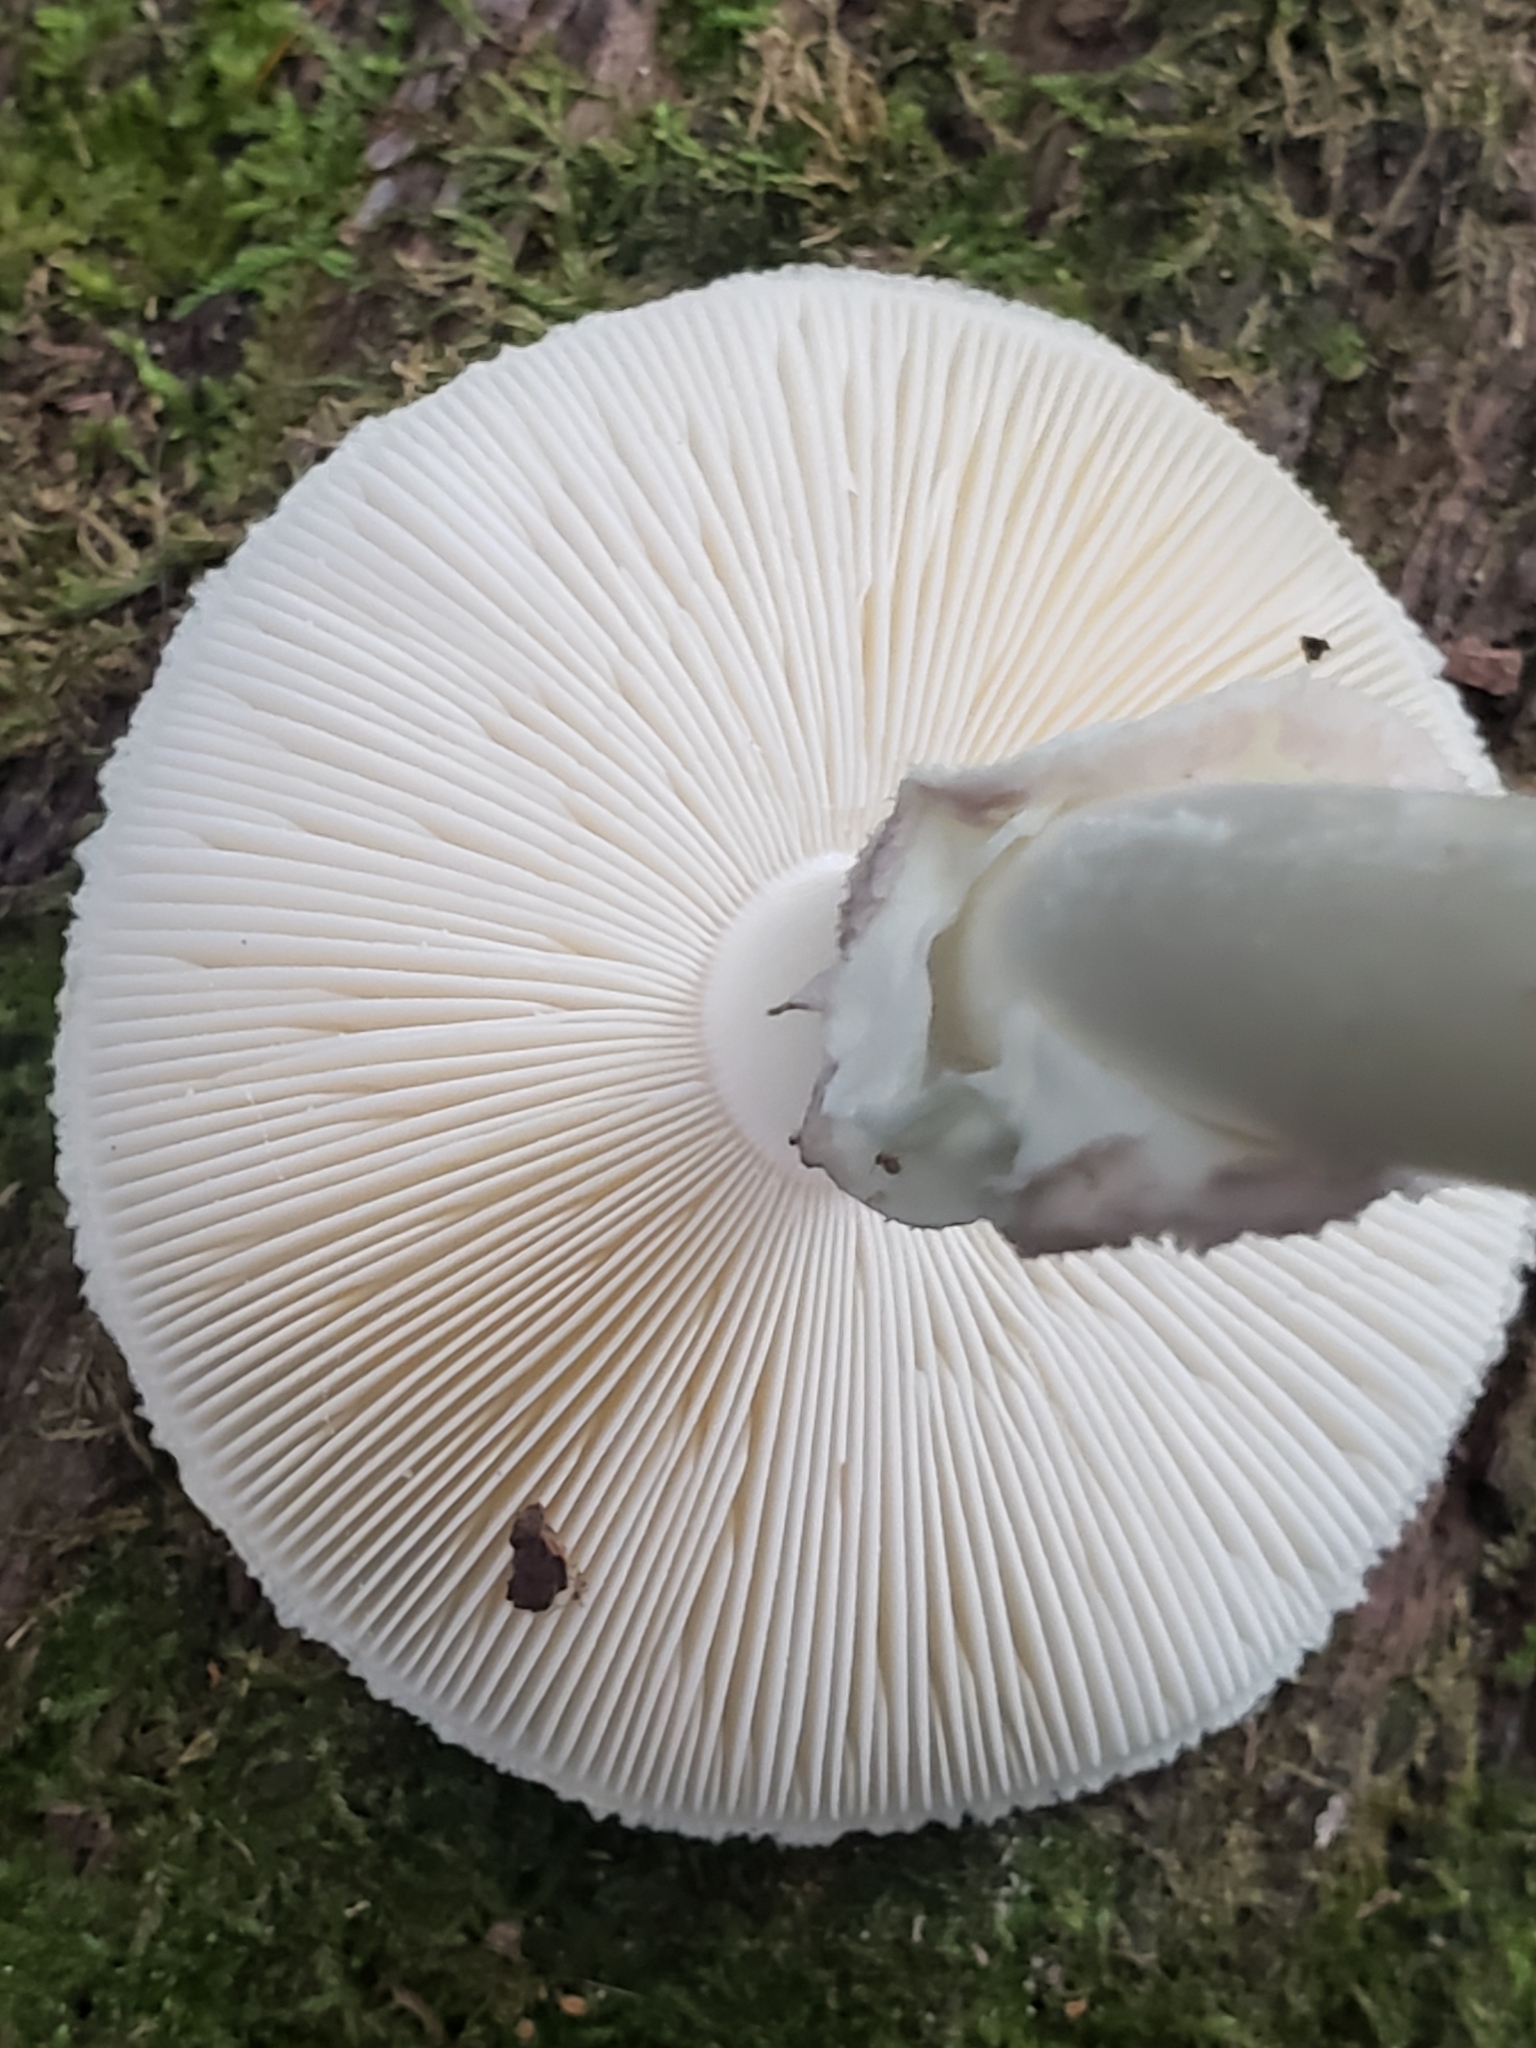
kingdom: Fungi
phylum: Basidiomycota
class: Agaricomycetes
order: Agaricales
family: Amanitaceae
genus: Amanita
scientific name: Amanita citrina
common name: False death-cap
